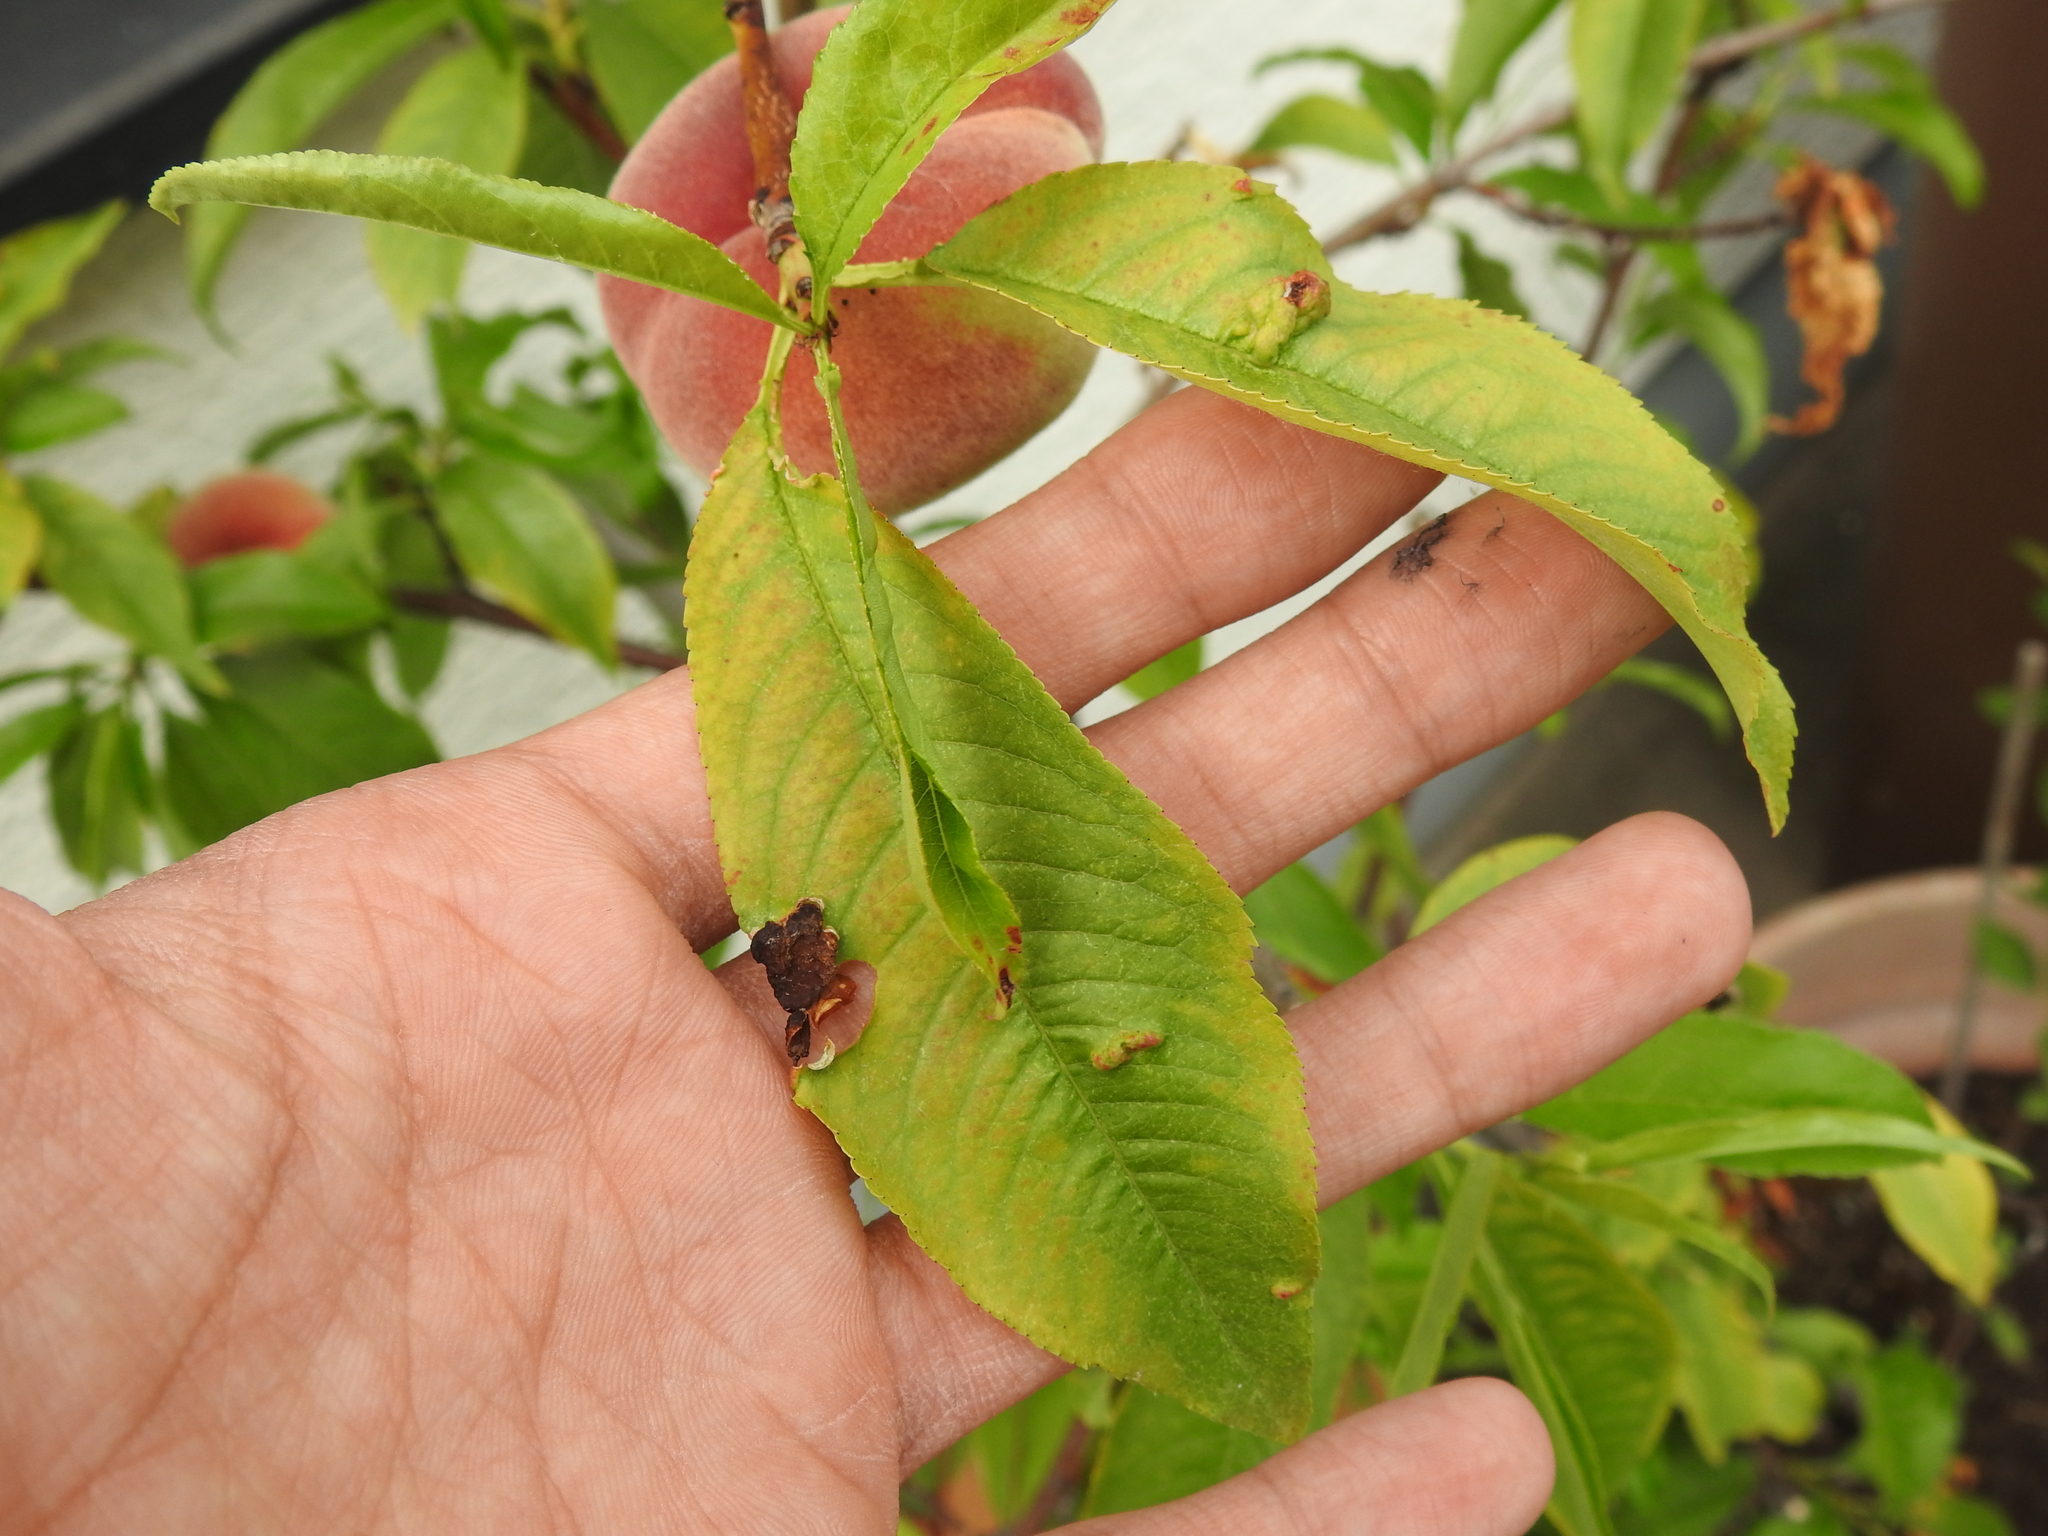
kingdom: Fungi
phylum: Ascomycota
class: Taphrinomycetes
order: Taphrinales
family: Taphrinaceae
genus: Taphrina
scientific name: Taphrina deformans
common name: Peach leaf curl
